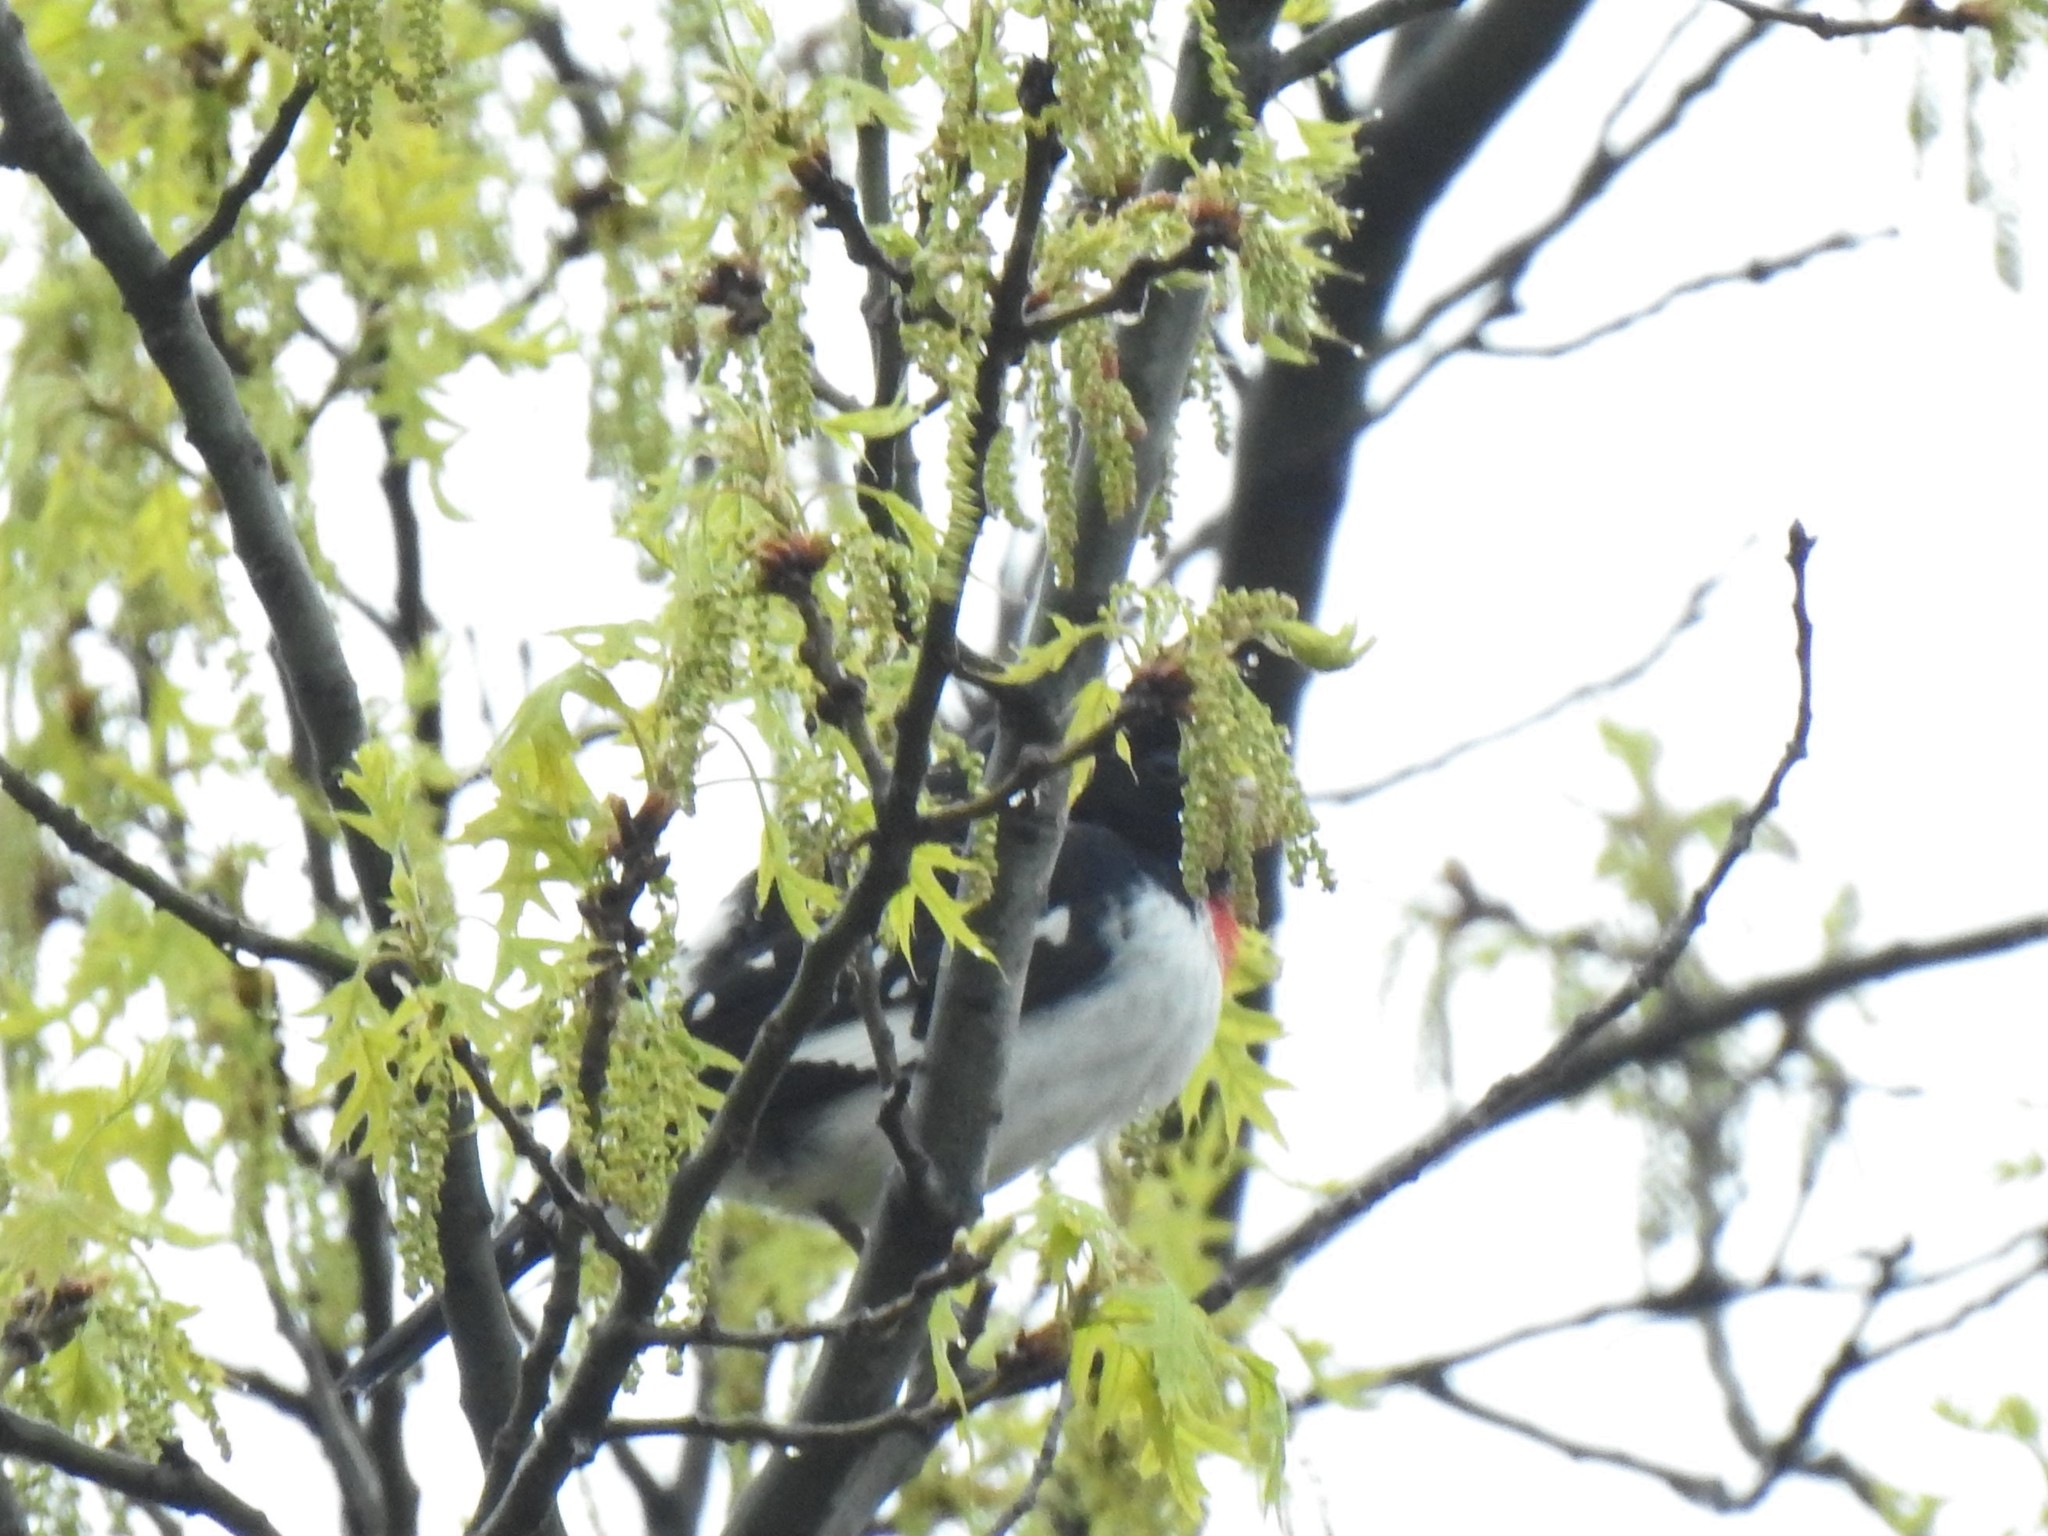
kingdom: Animalia
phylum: Chordata
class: Aves
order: Passeriformes
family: Cardinalidae
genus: Pheucticus
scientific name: Pheucticus ludovicianus
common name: Rose-breasted grosbeak
